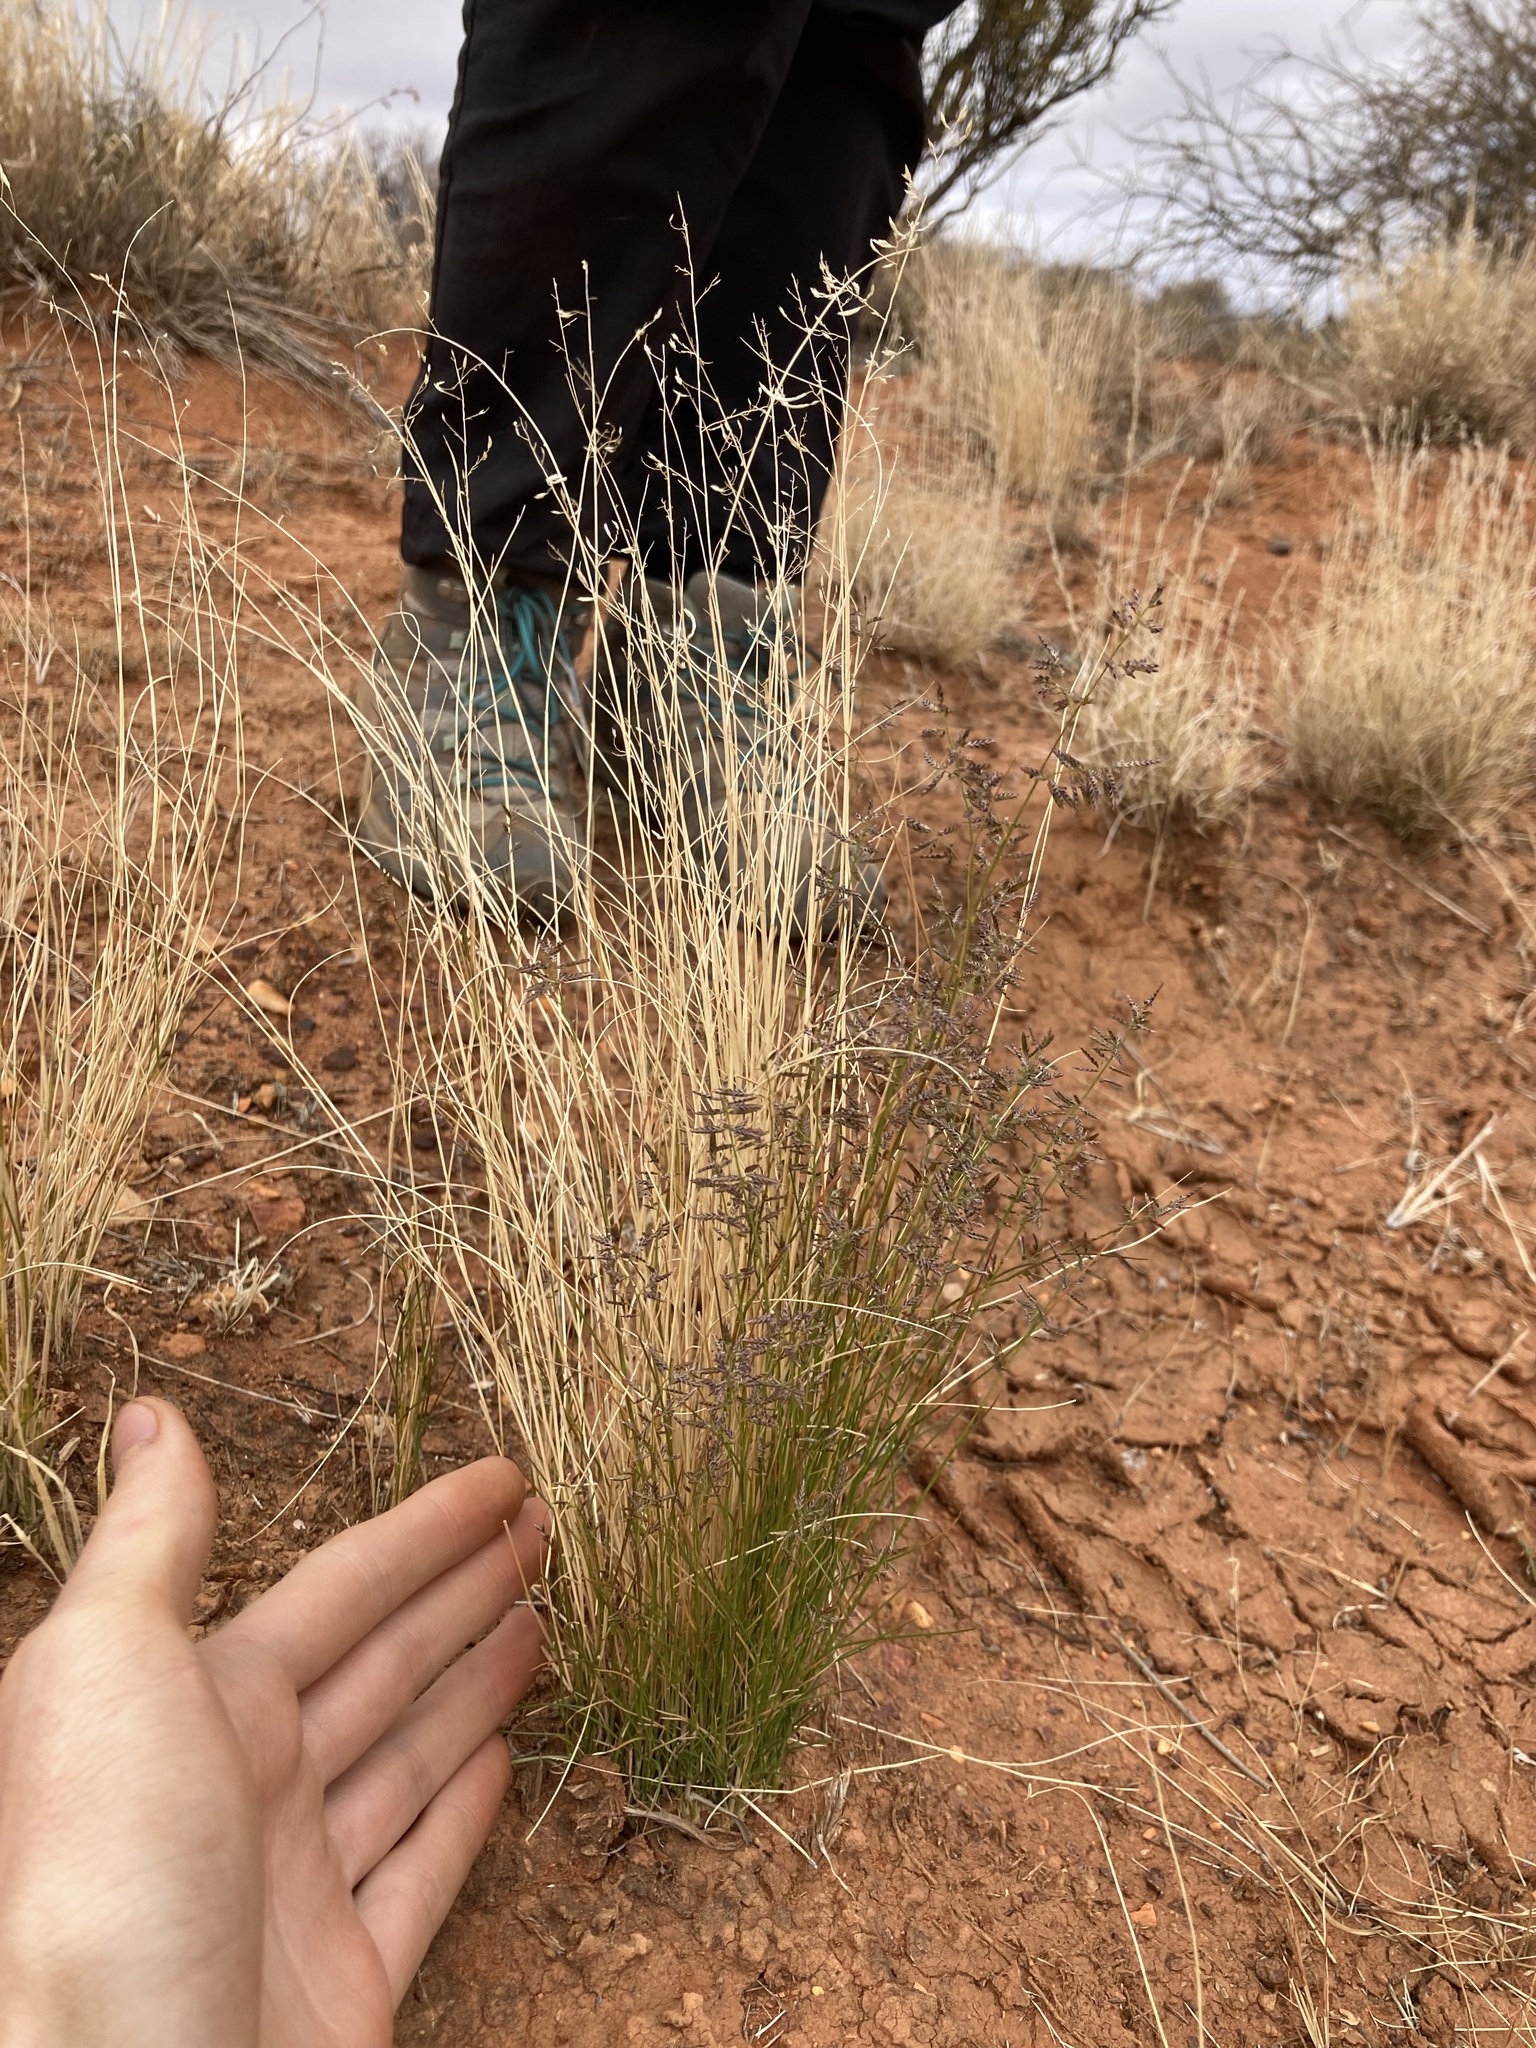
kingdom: Plantae
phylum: Tracheophyta
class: Liliopsida
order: Poales
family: Poaceae
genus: Eragrostis
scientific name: Eragrostis xerophila
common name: Wire wandarrie grass
